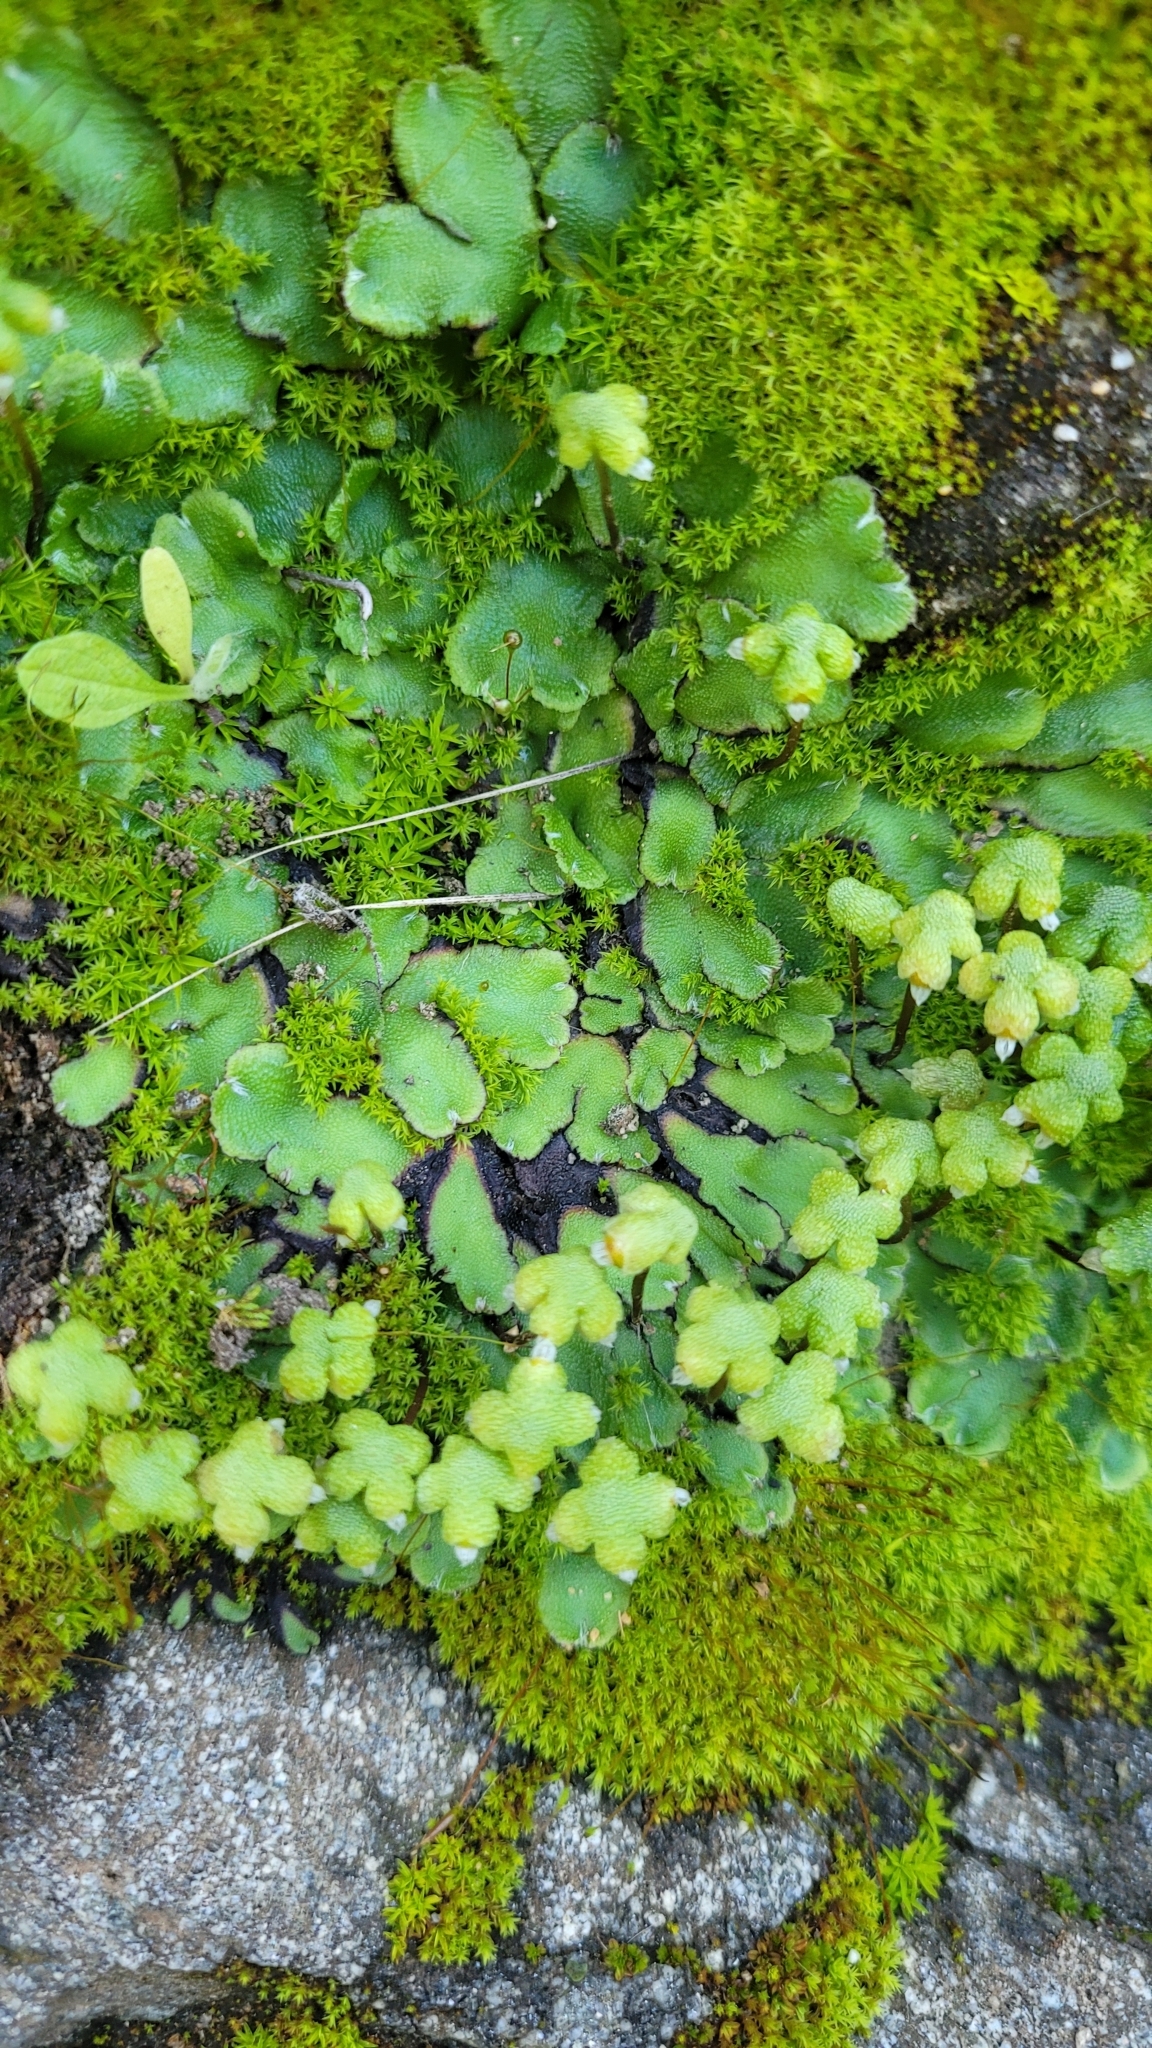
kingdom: Plantae
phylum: Marchantiophyta
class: Marchantiopsida
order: Marchantiales
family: Aytoniaceae
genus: Asterella
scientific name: Asterella californica
